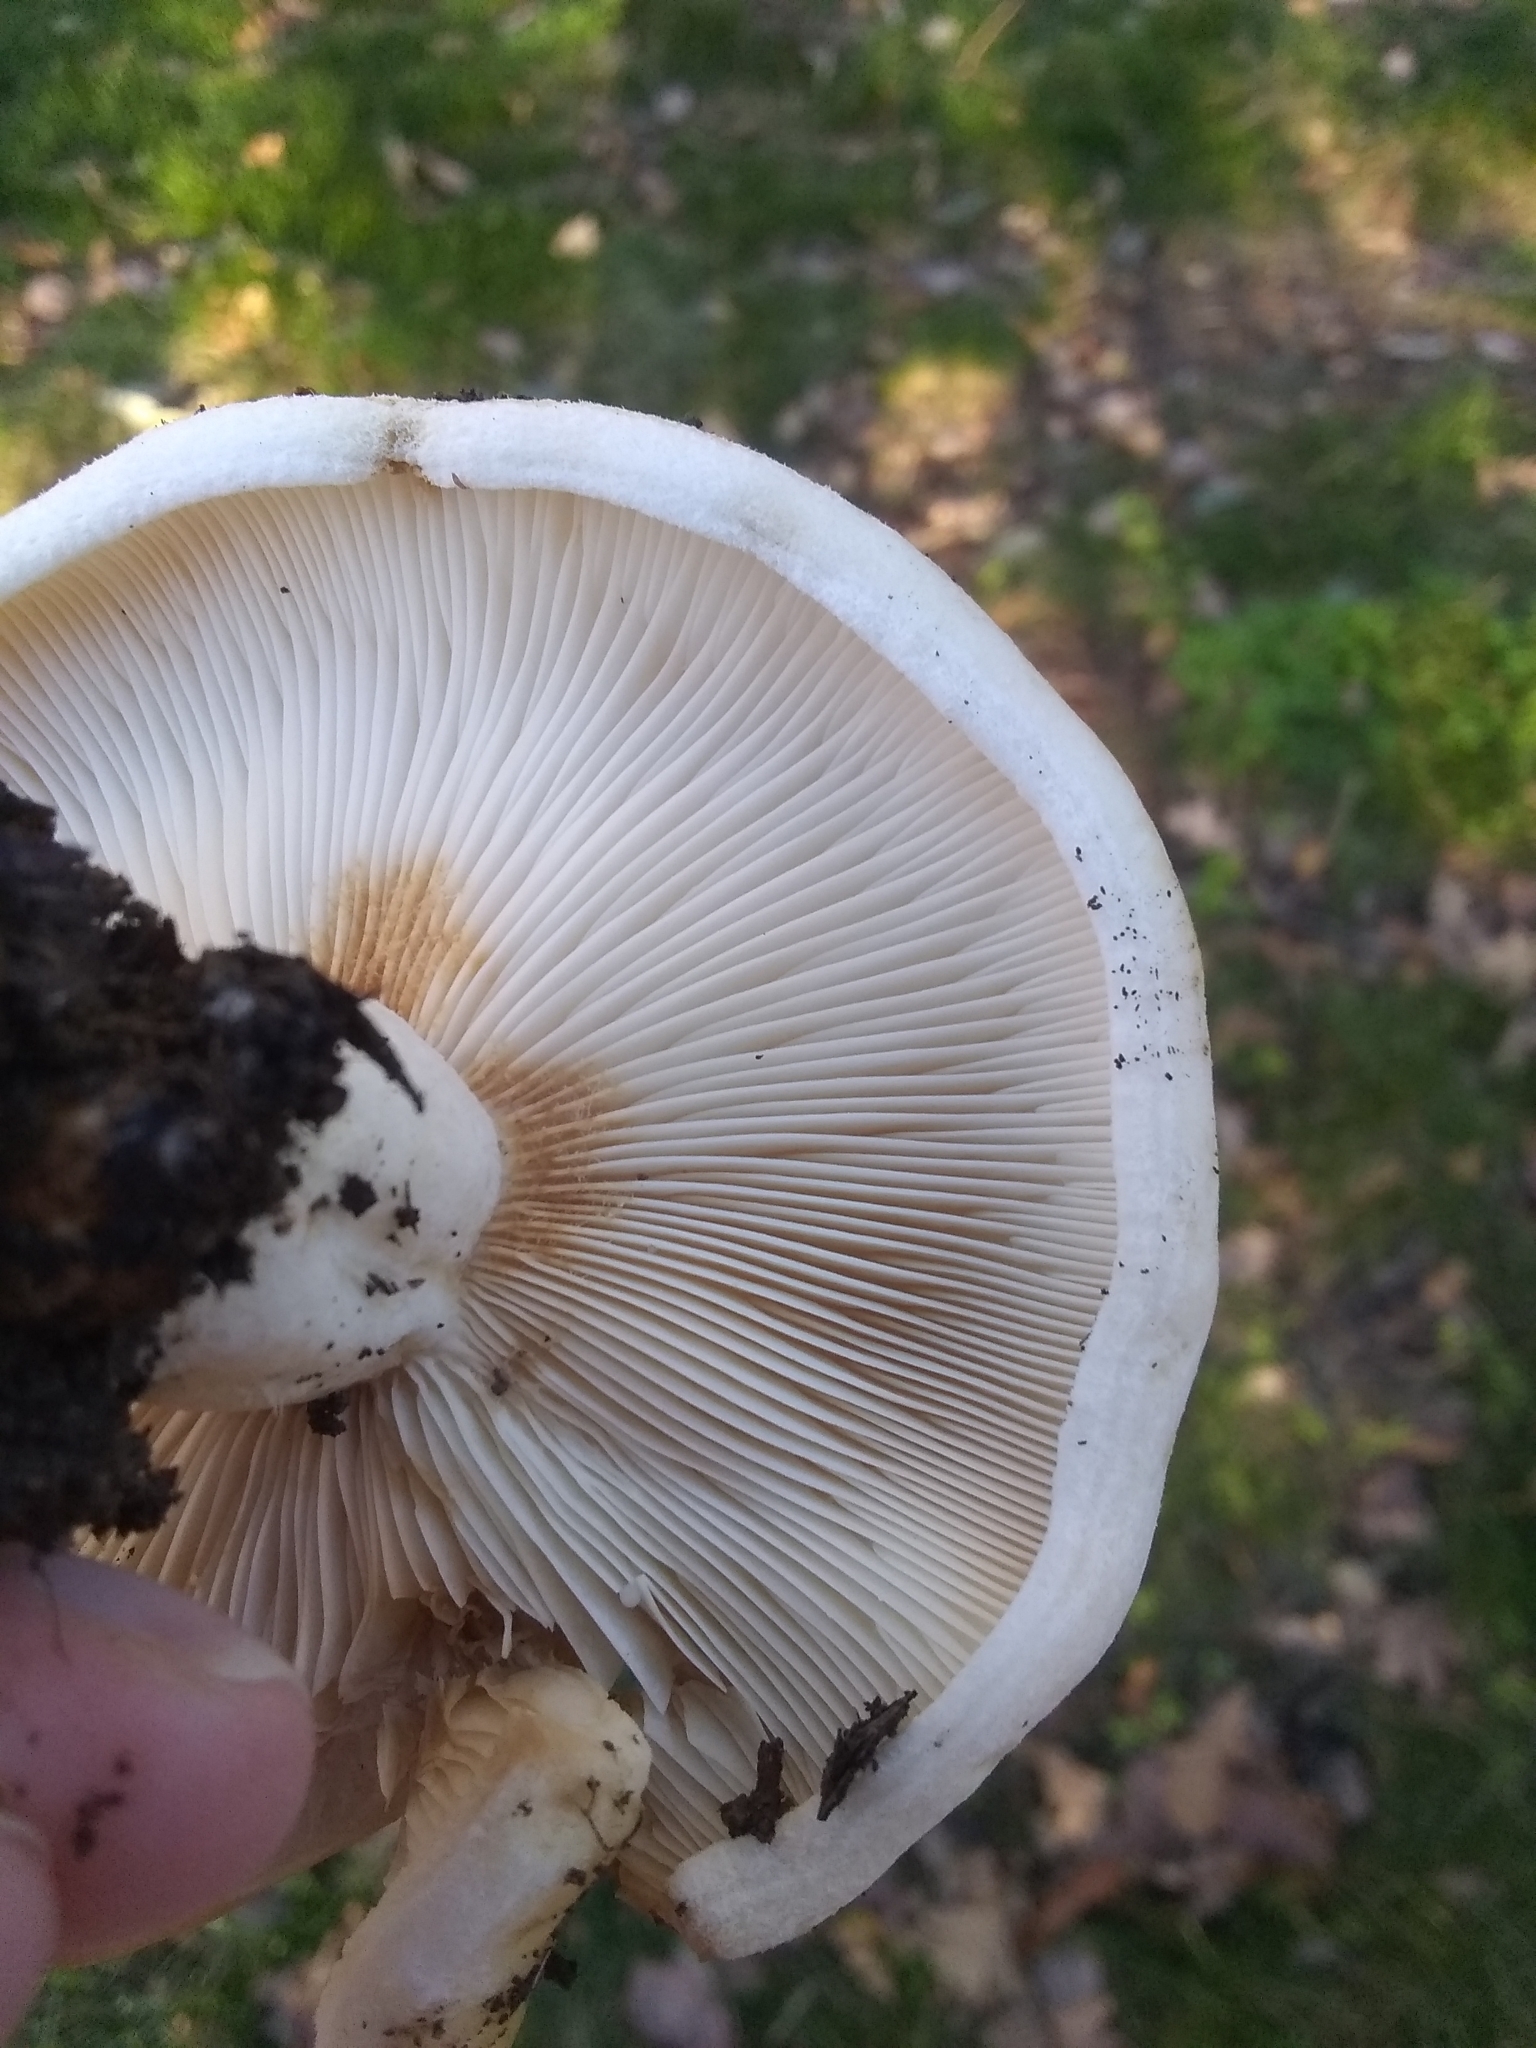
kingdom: Fungi
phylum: Basidiomycota
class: Agaricomycetes
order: Russulales
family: Russulaceae
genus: Lactarius
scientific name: Lactarius alnicola
